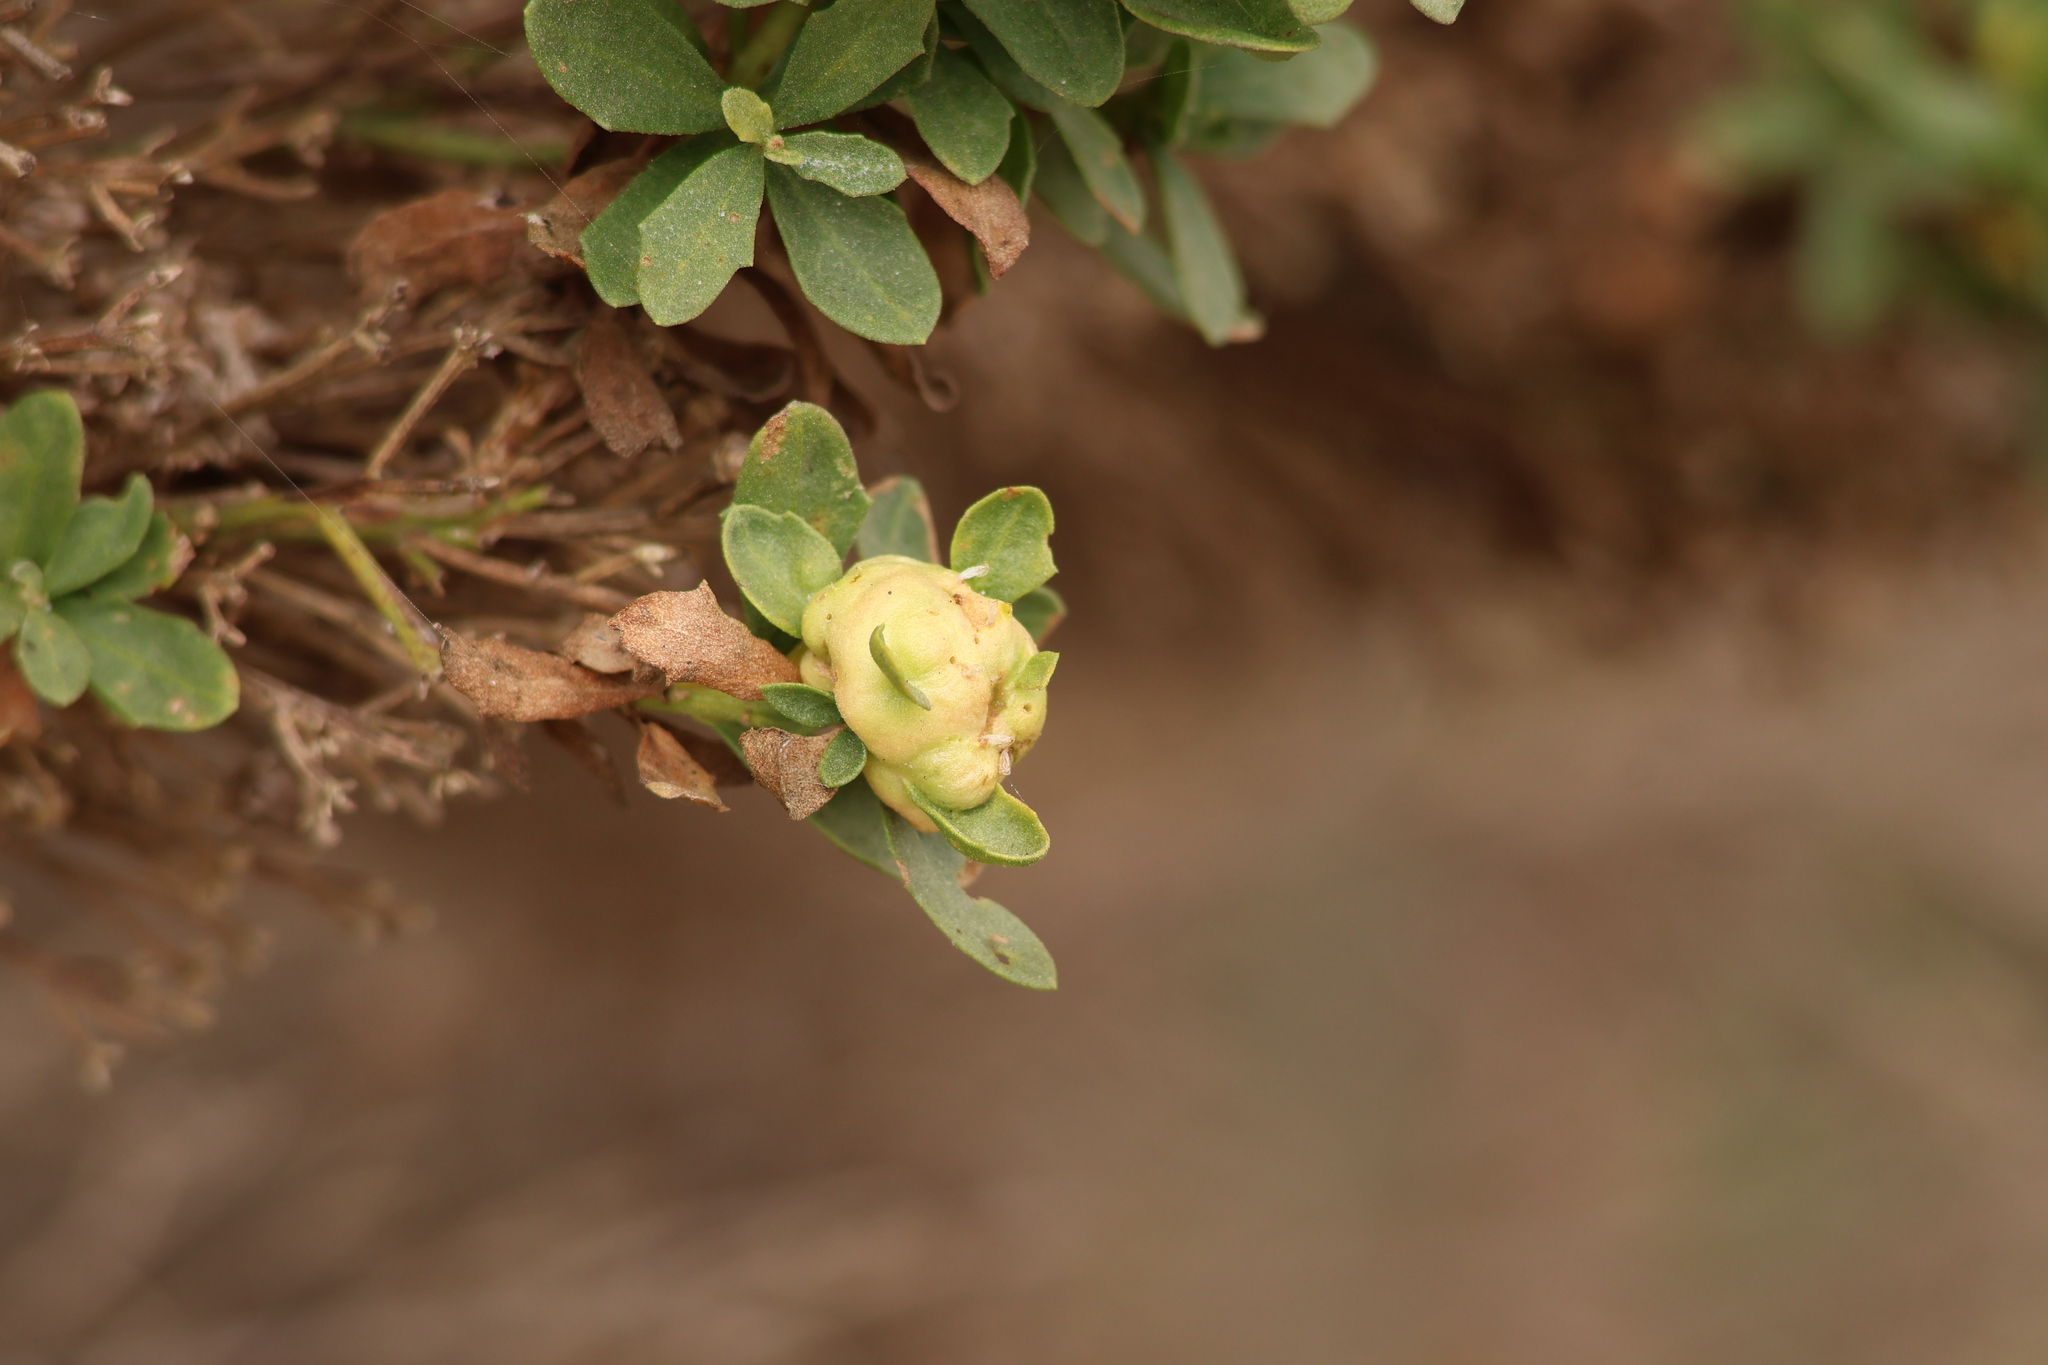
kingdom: Animalia
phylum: Arthropoda
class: Insecta
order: Diptera
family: Cecidomyiidae
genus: Rhopalomyia
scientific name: Rhopalomyia californica
